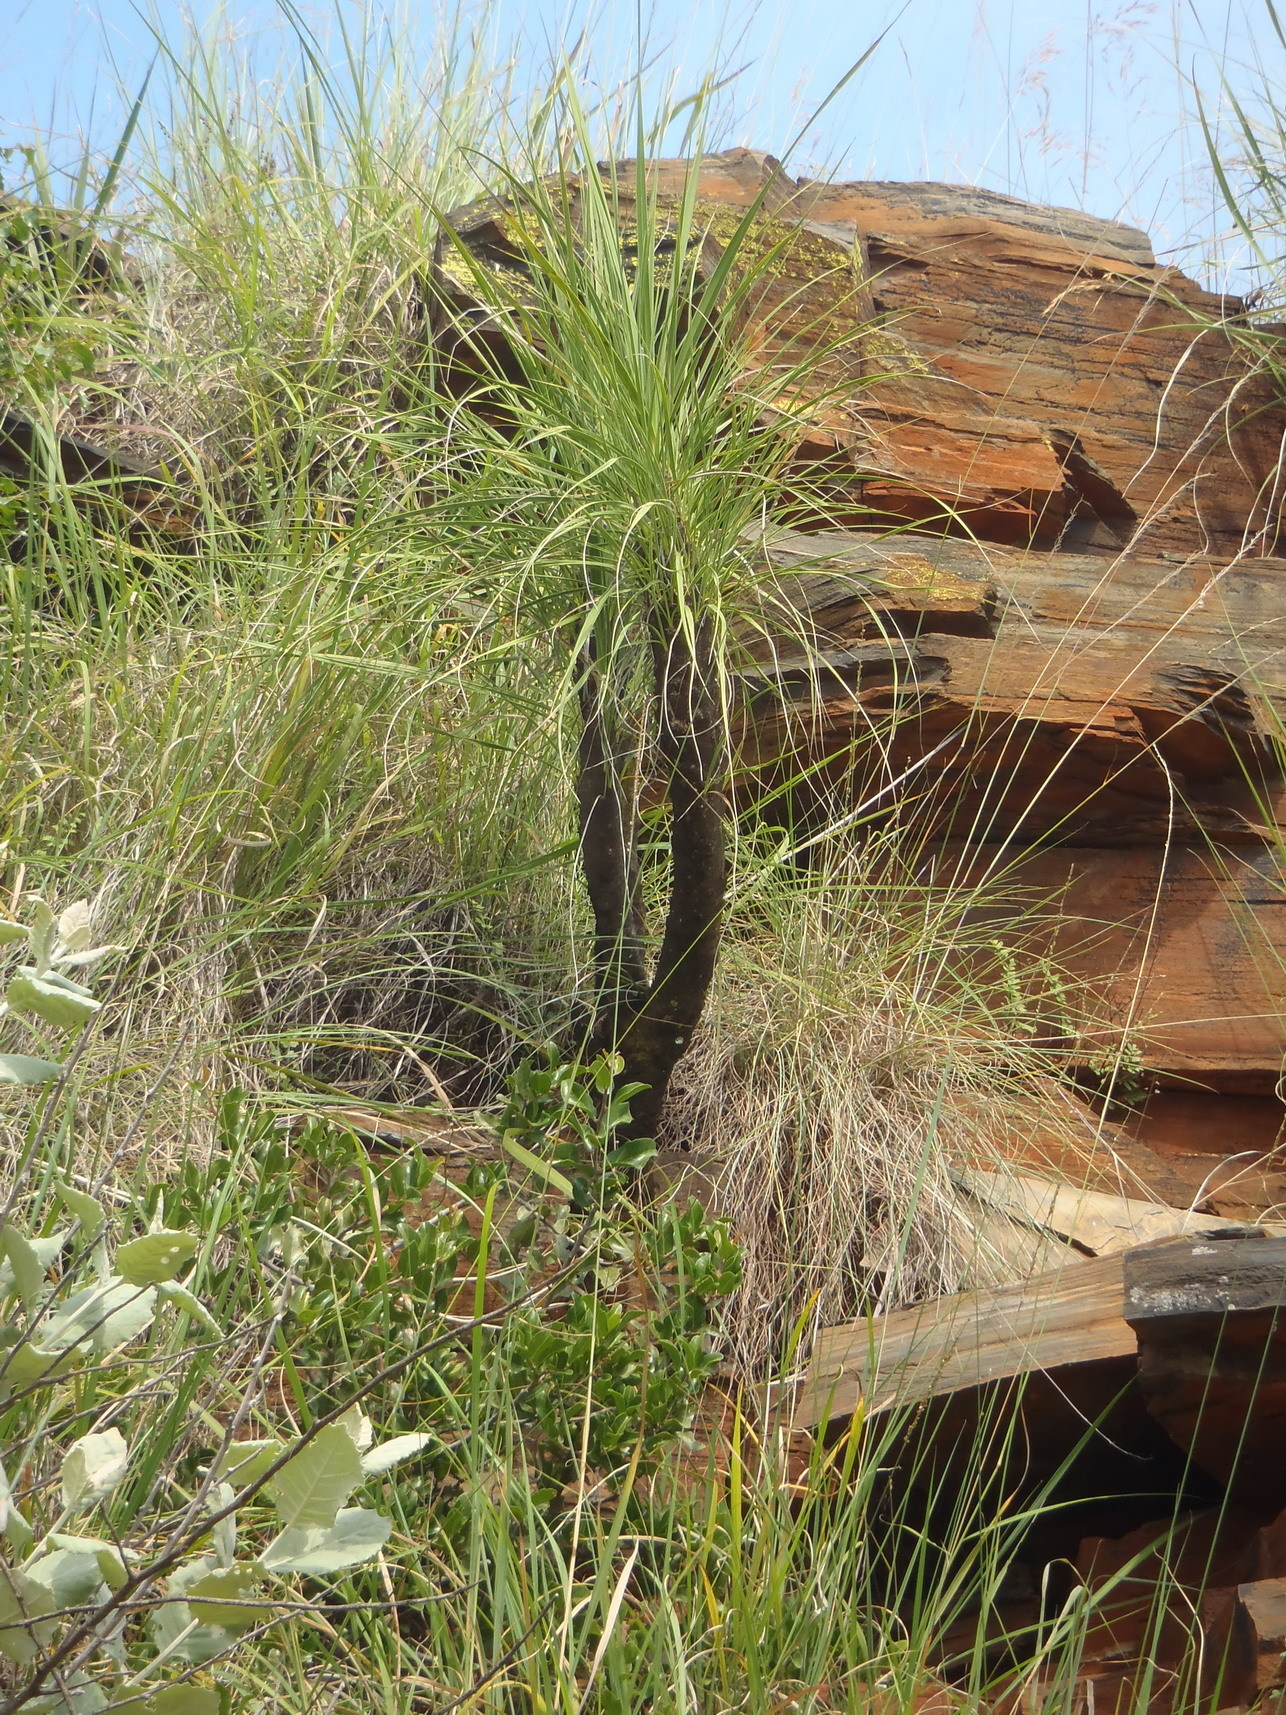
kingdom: Plantae
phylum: Tracheophyta
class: Liliopsida
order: Pandanales
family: Velloziaceae
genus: Xerophyta
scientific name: Xerophyta retinervis
